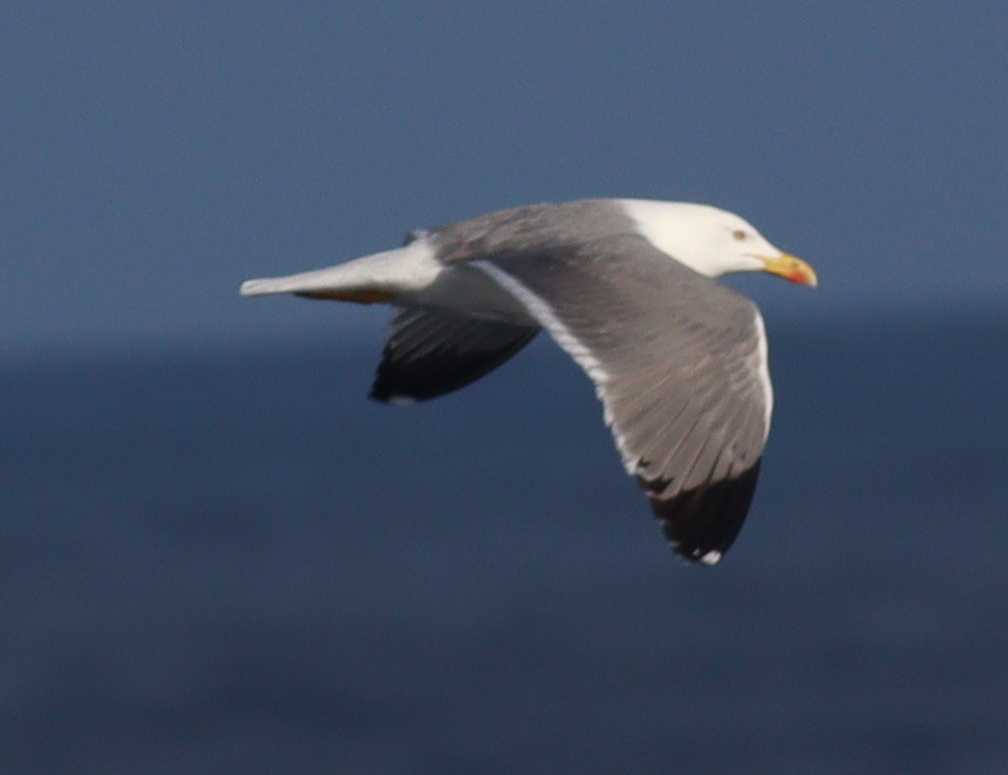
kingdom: Animalia
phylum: Chordata
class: Aves
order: Charadriiformes
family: Laridae
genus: Larus
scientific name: Larus michahellis
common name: Yellow-legged gull
